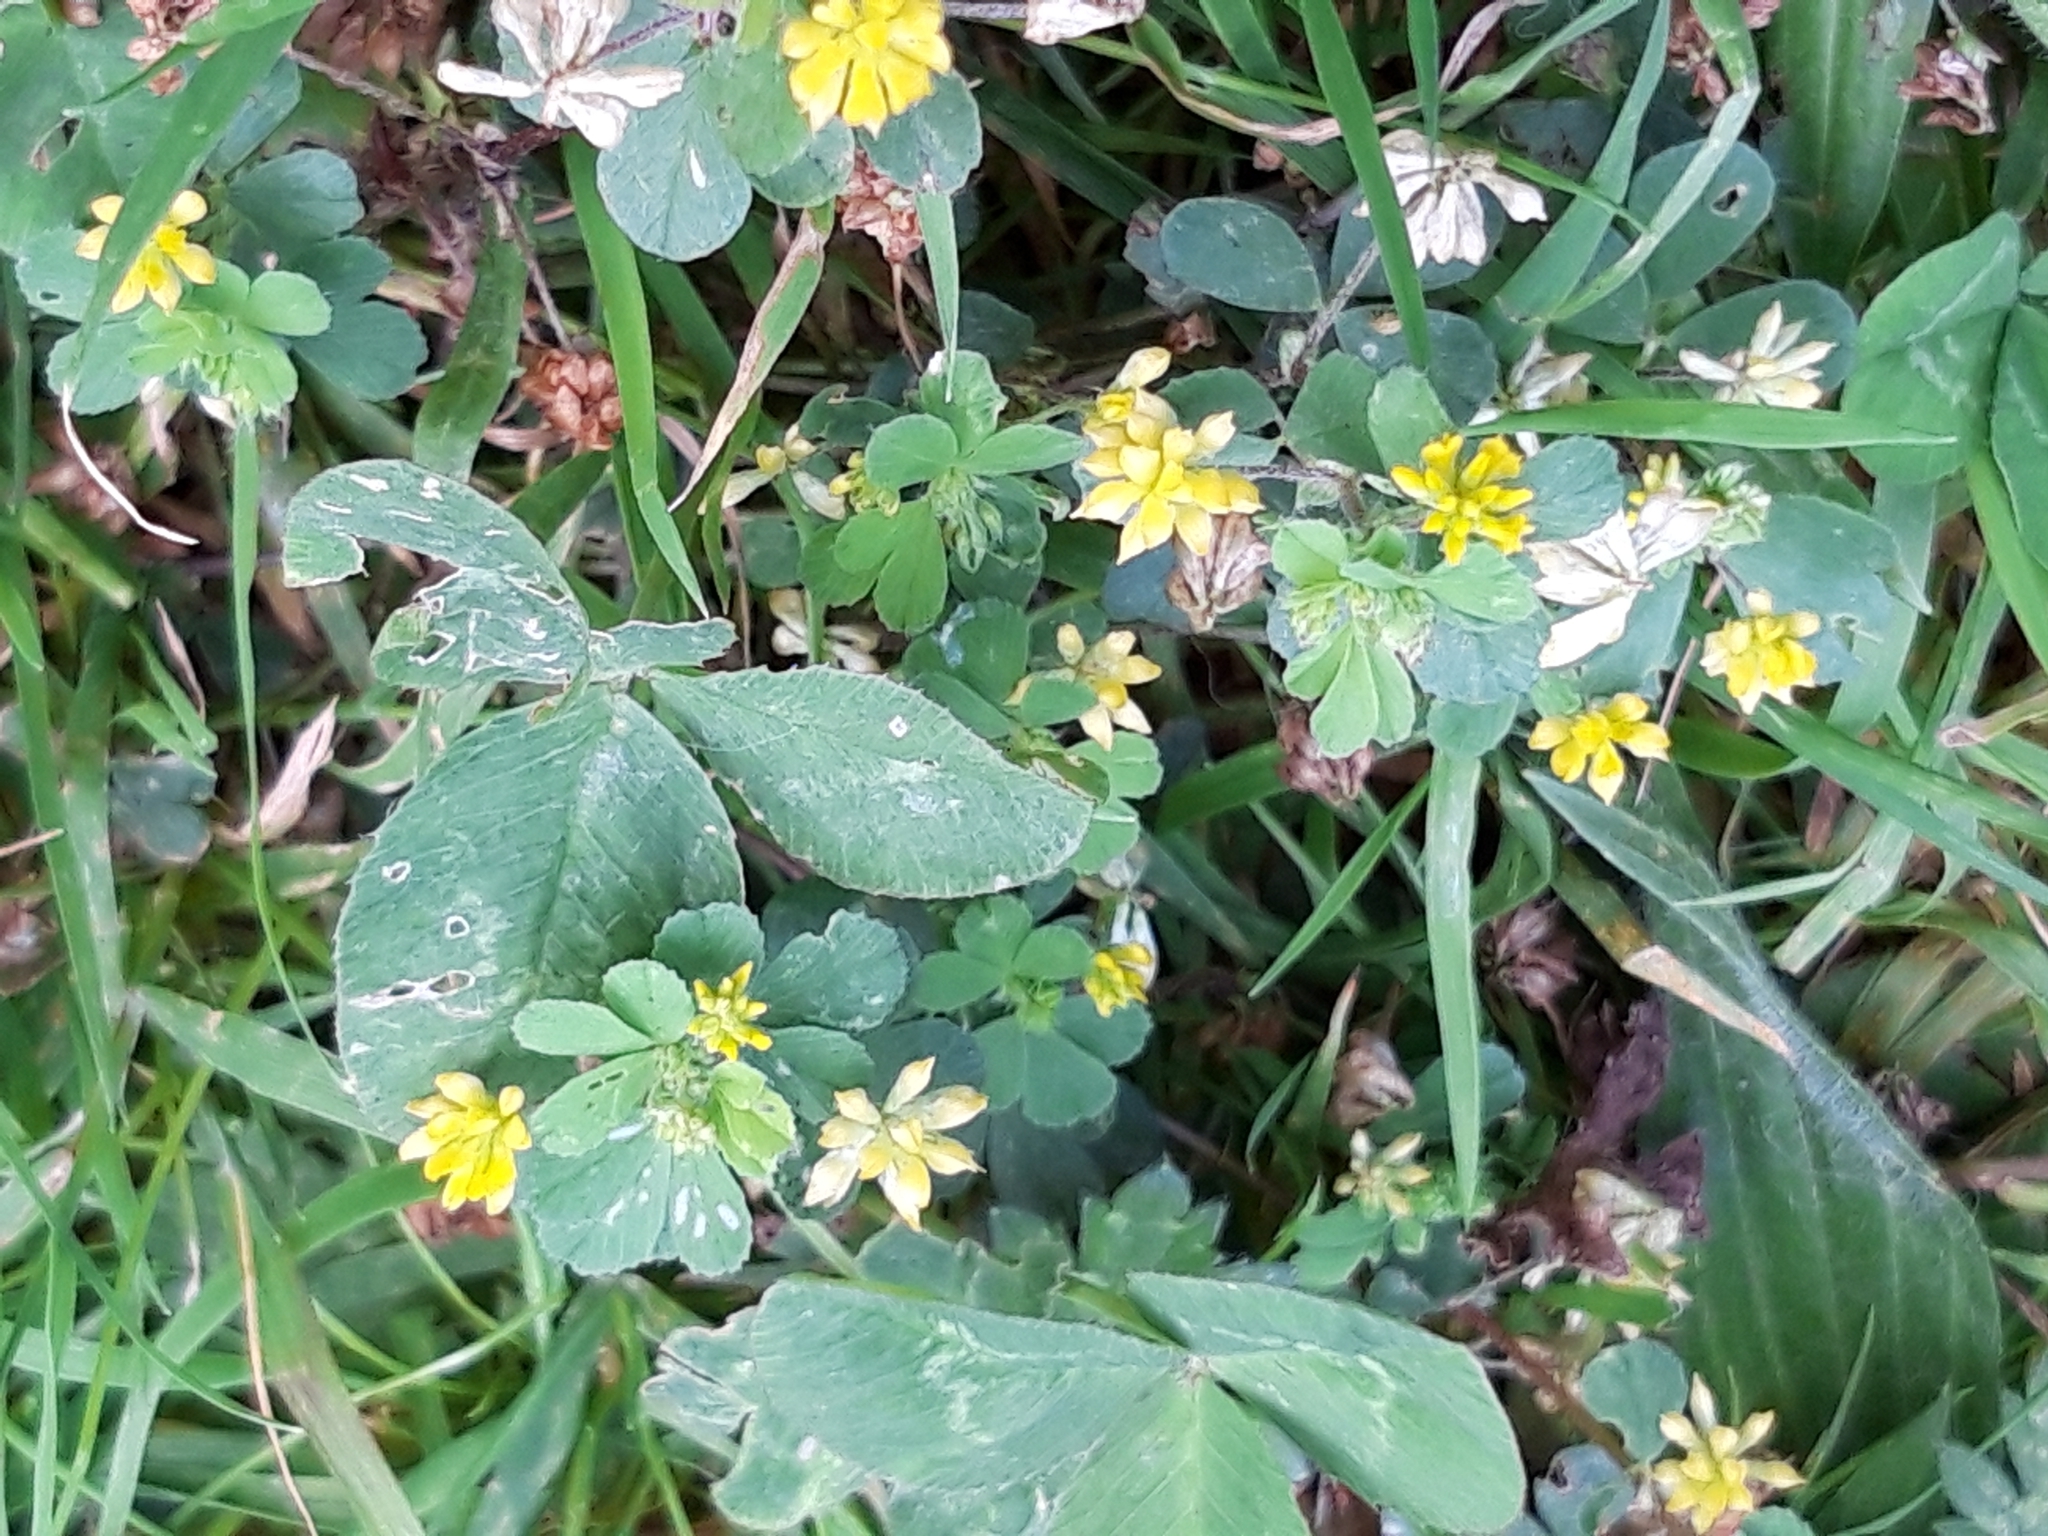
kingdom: Plantae
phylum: Tracheophyta
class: Magnoliopsida
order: Fabales
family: Fabaceae
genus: Trifolium
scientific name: Trifolium dubium
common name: Suckling clover
